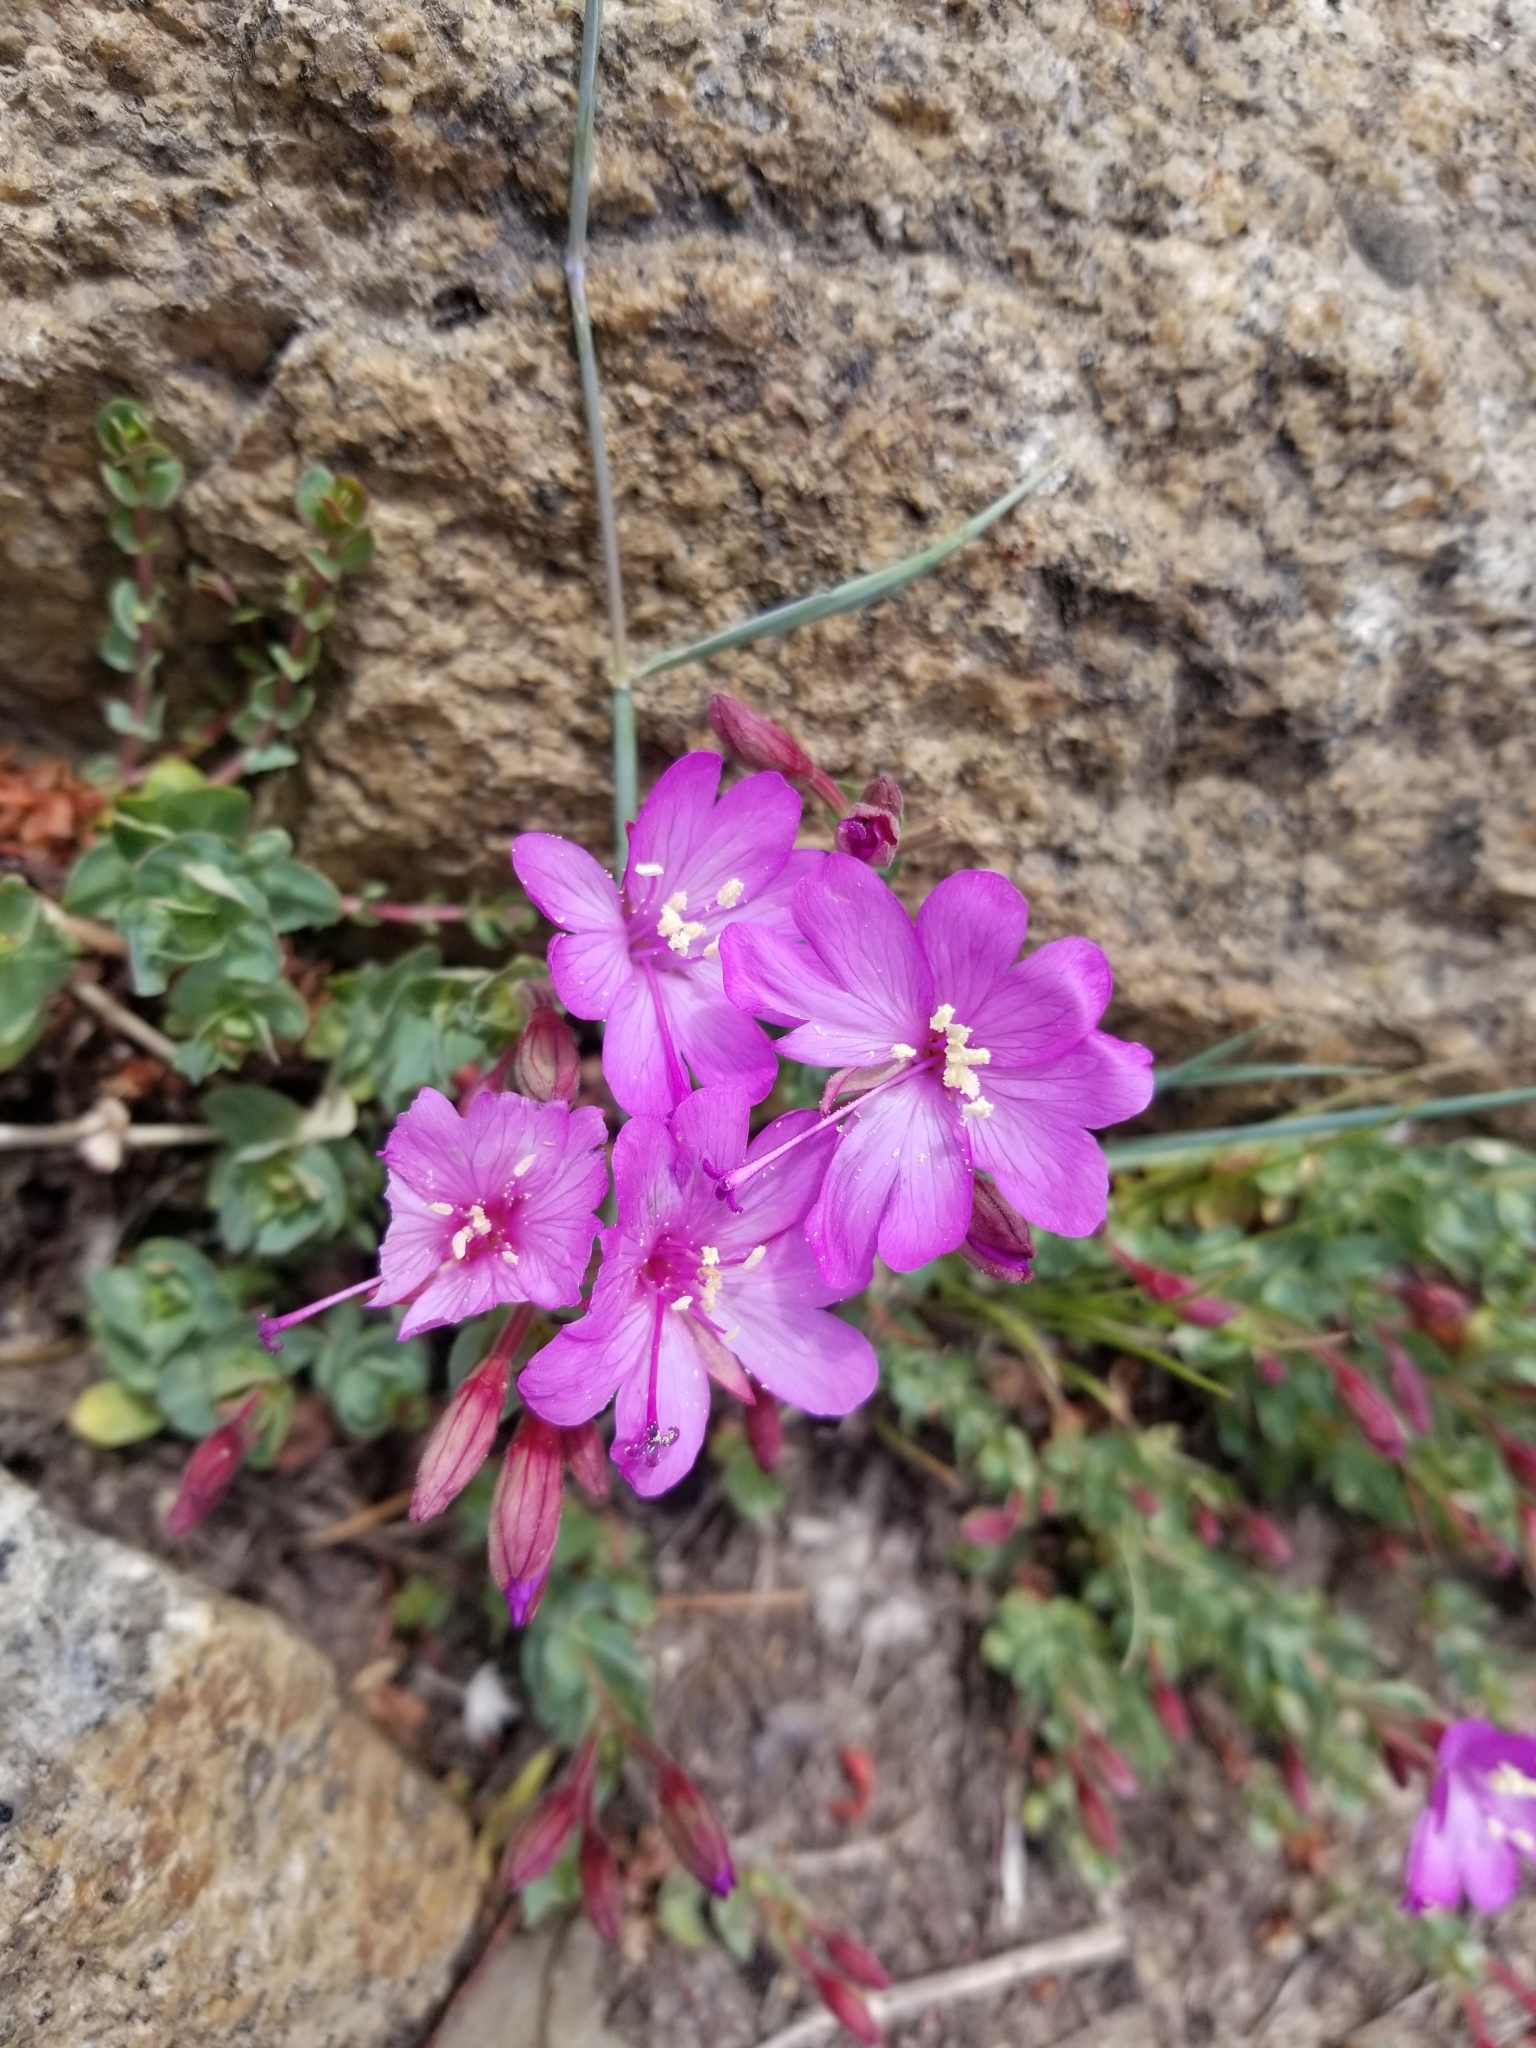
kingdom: Plantae
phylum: Tracheophyta
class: Magnoliopsida
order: Myrtales
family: Onagraceae
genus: Epilobium
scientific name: Epilobium obcordatum
